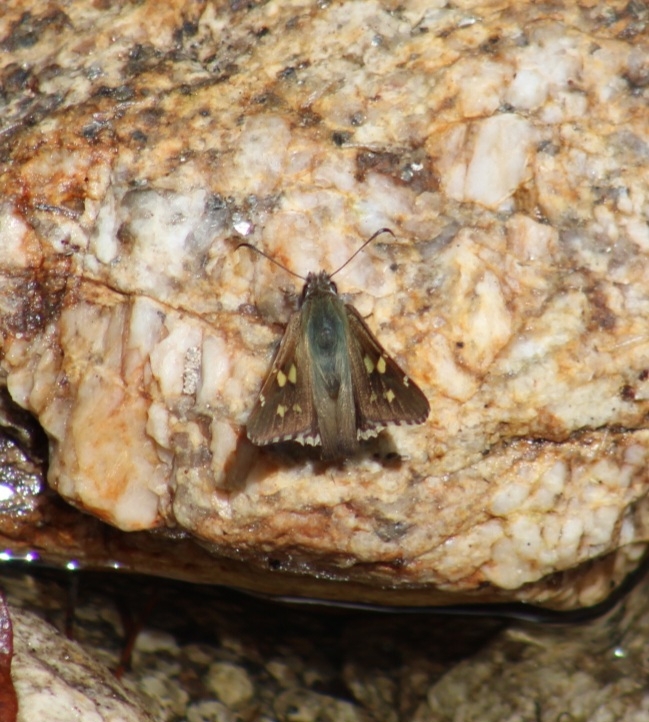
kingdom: Animalia
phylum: Arthropoda
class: Insecta
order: Lepidoptera
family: Hesperiidae
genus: Zestusa
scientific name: Zestusa dorus
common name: Short-tailed skipper
